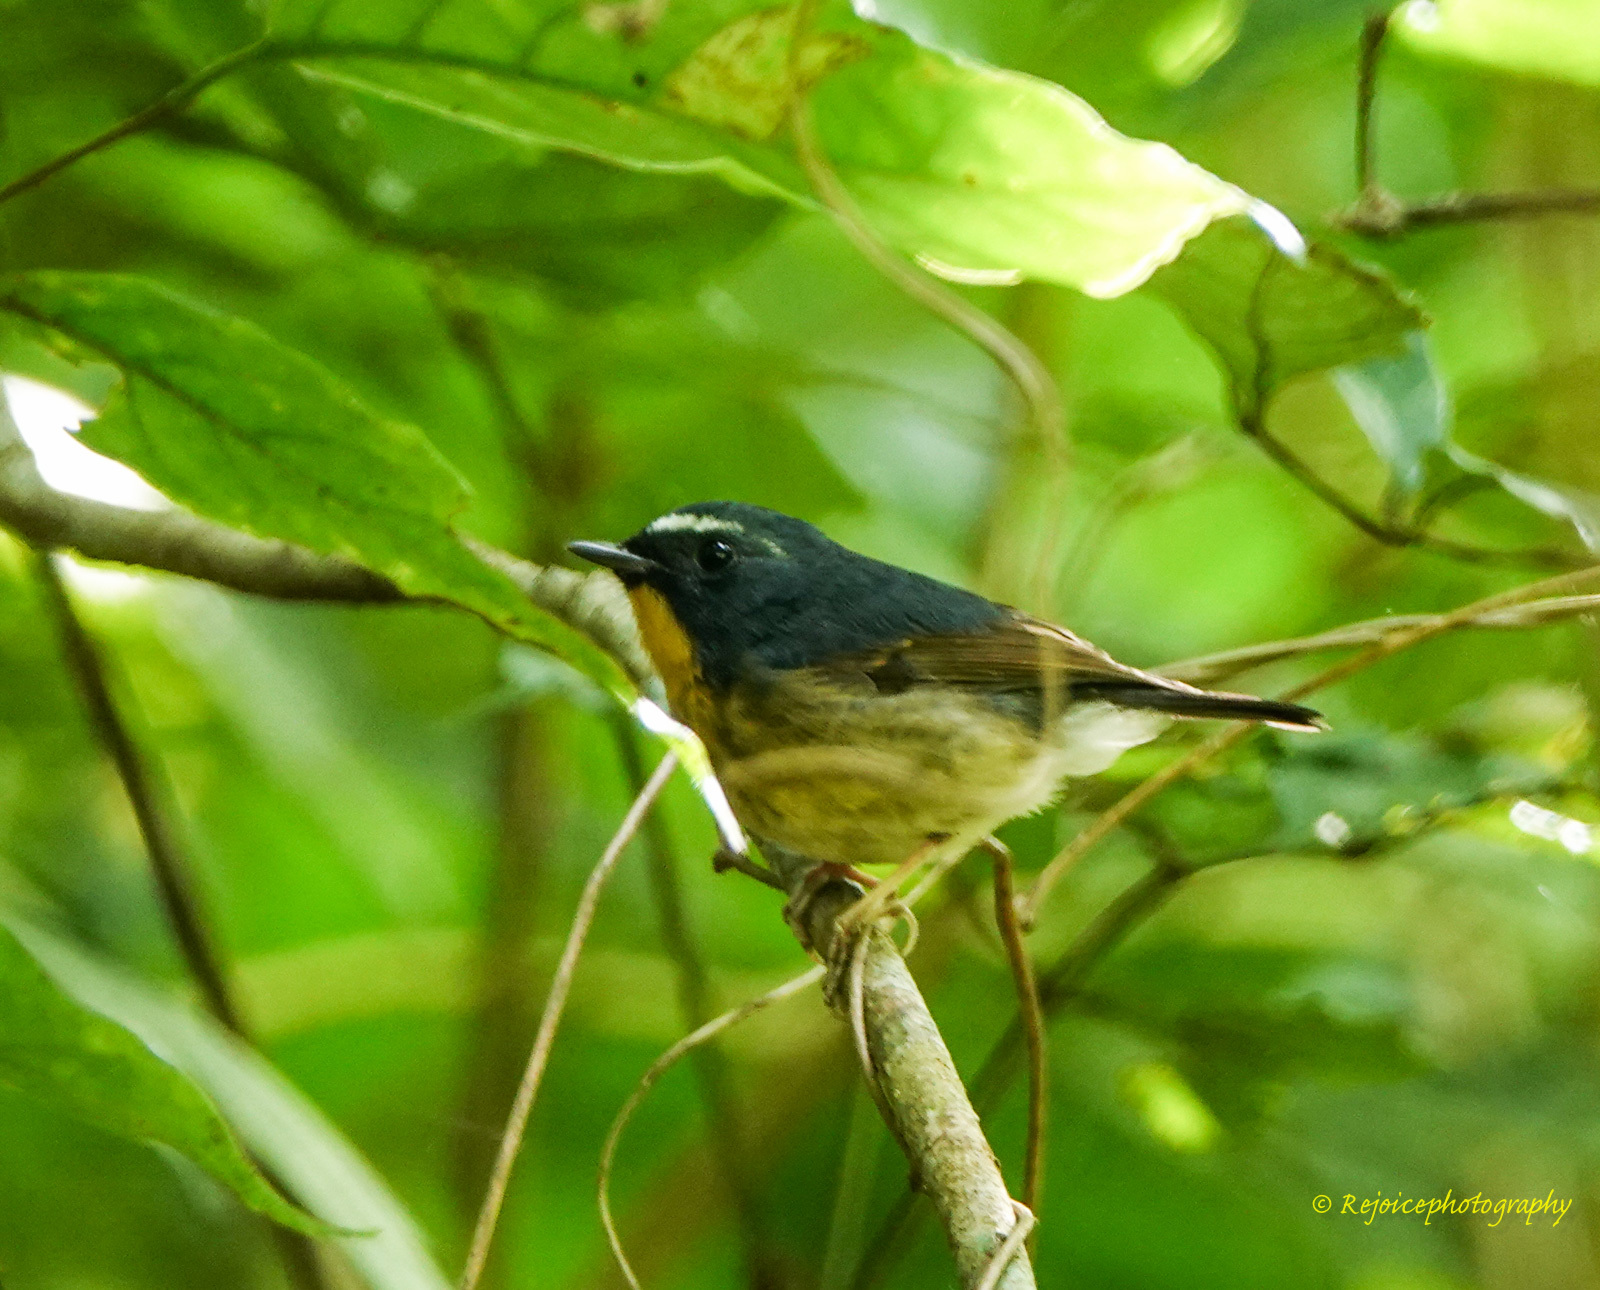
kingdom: Animalia
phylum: Chordata
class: Aves
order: Passeriformes
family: Muscicapidae
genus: Ficedula
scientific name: Ficedula hyperythra
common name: Snowy-browed flycatcher
